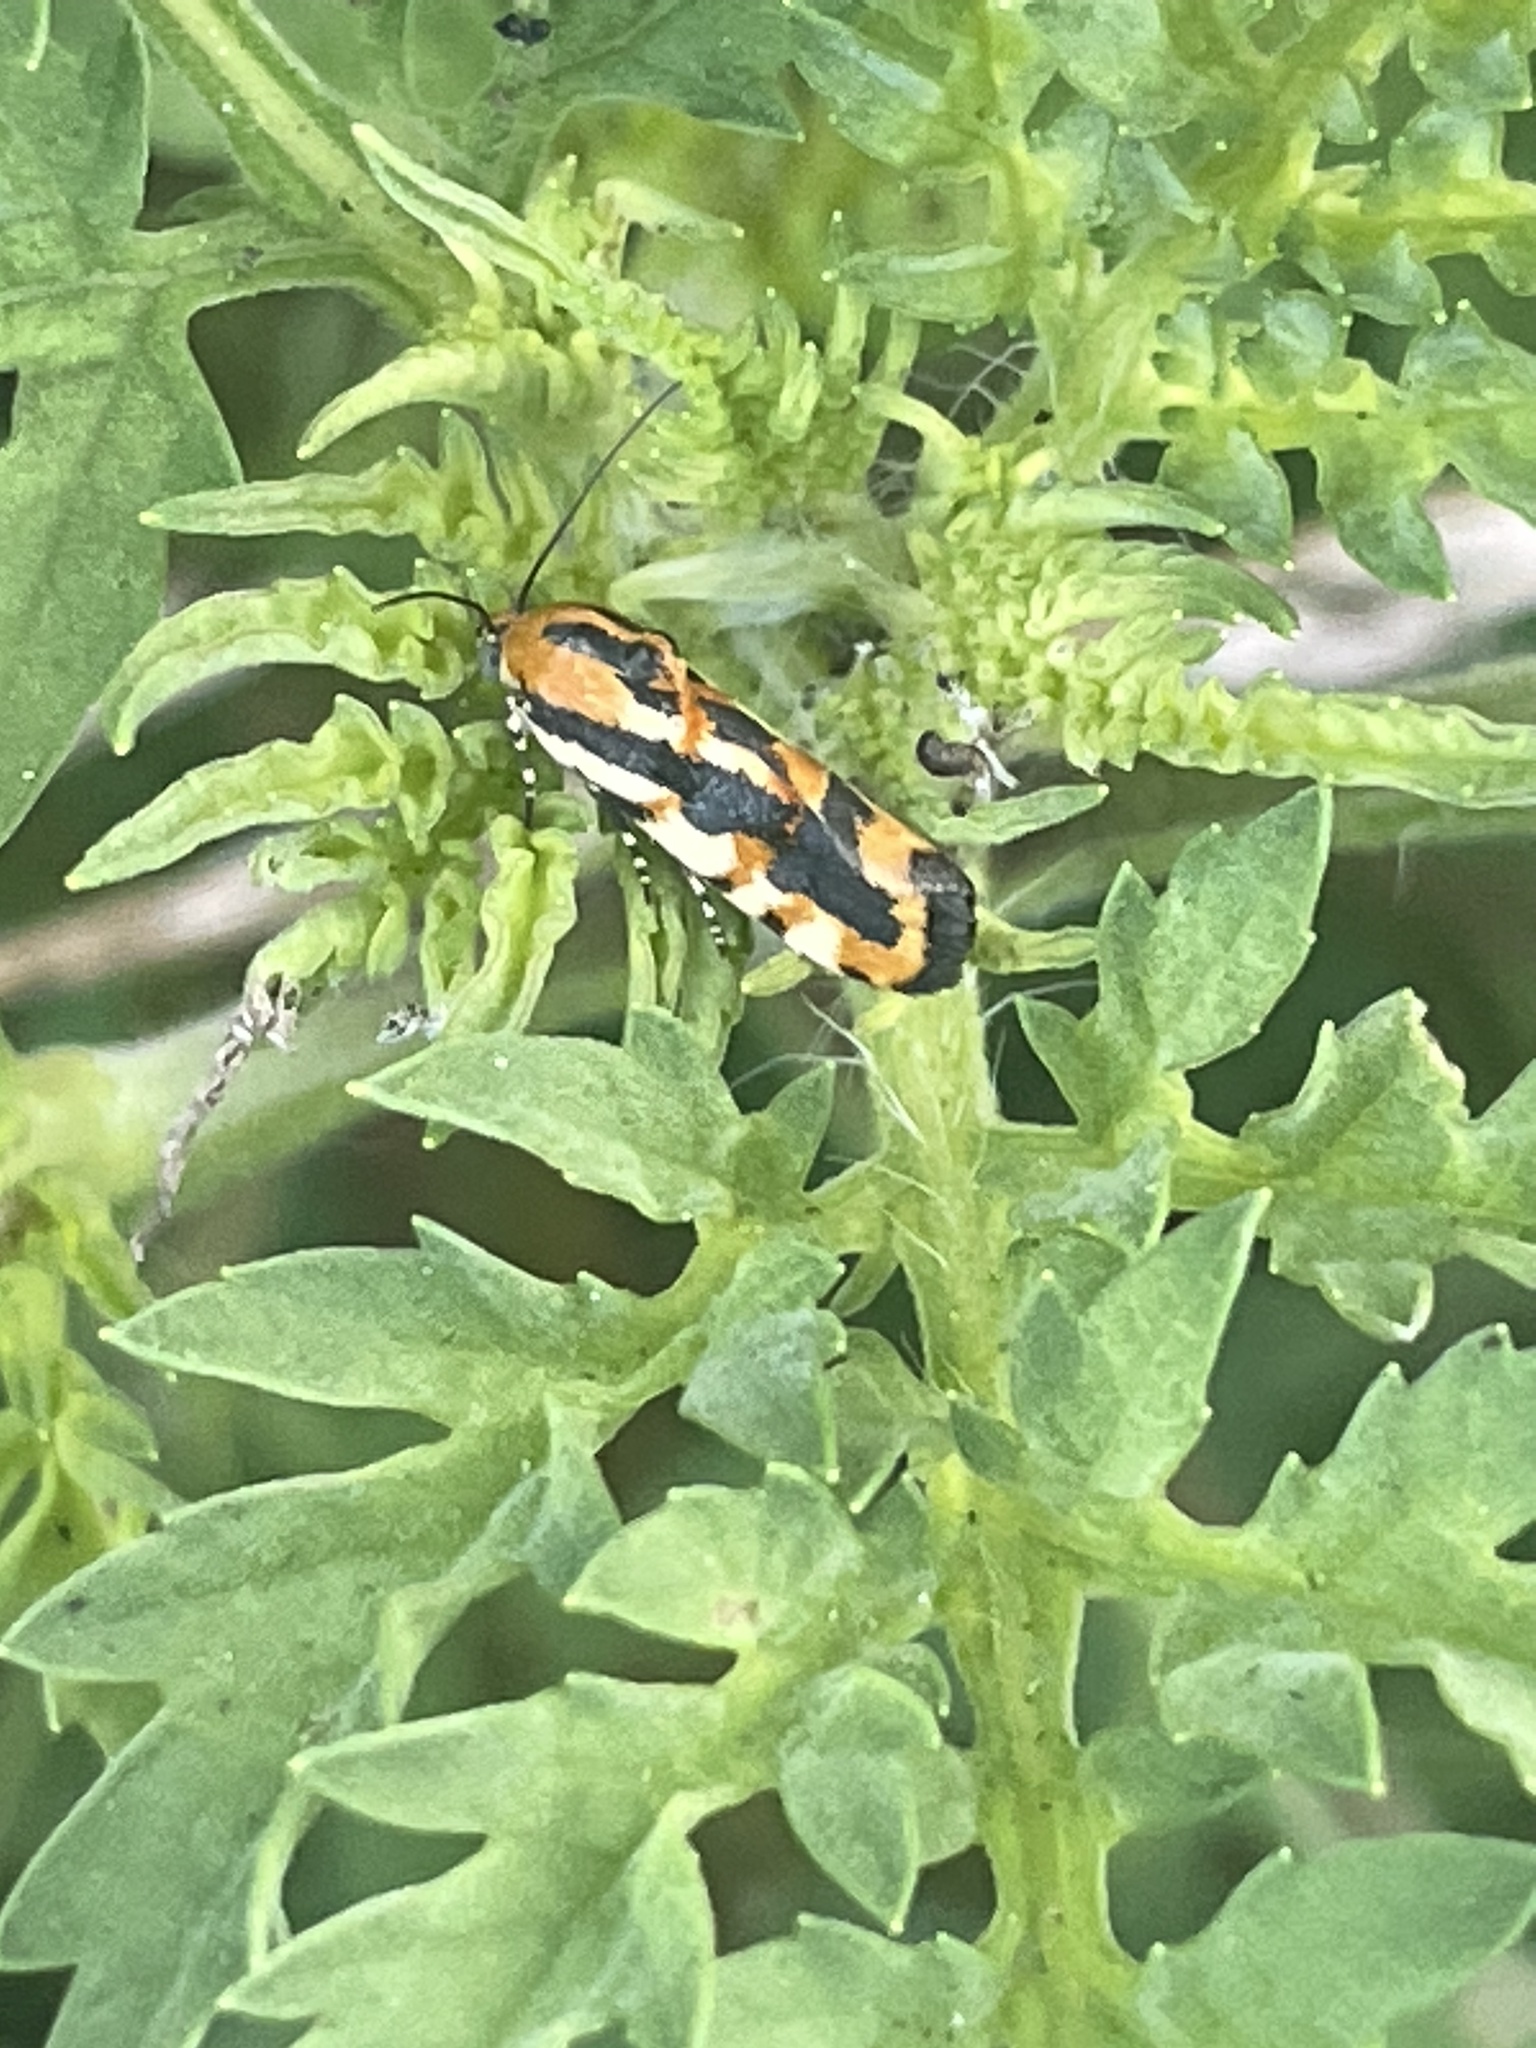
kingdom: Animalia
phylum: Arthropoda
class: Insecta
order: Lepidoptera
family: Noctuidae
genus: Acontia
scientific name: Acontia leo
